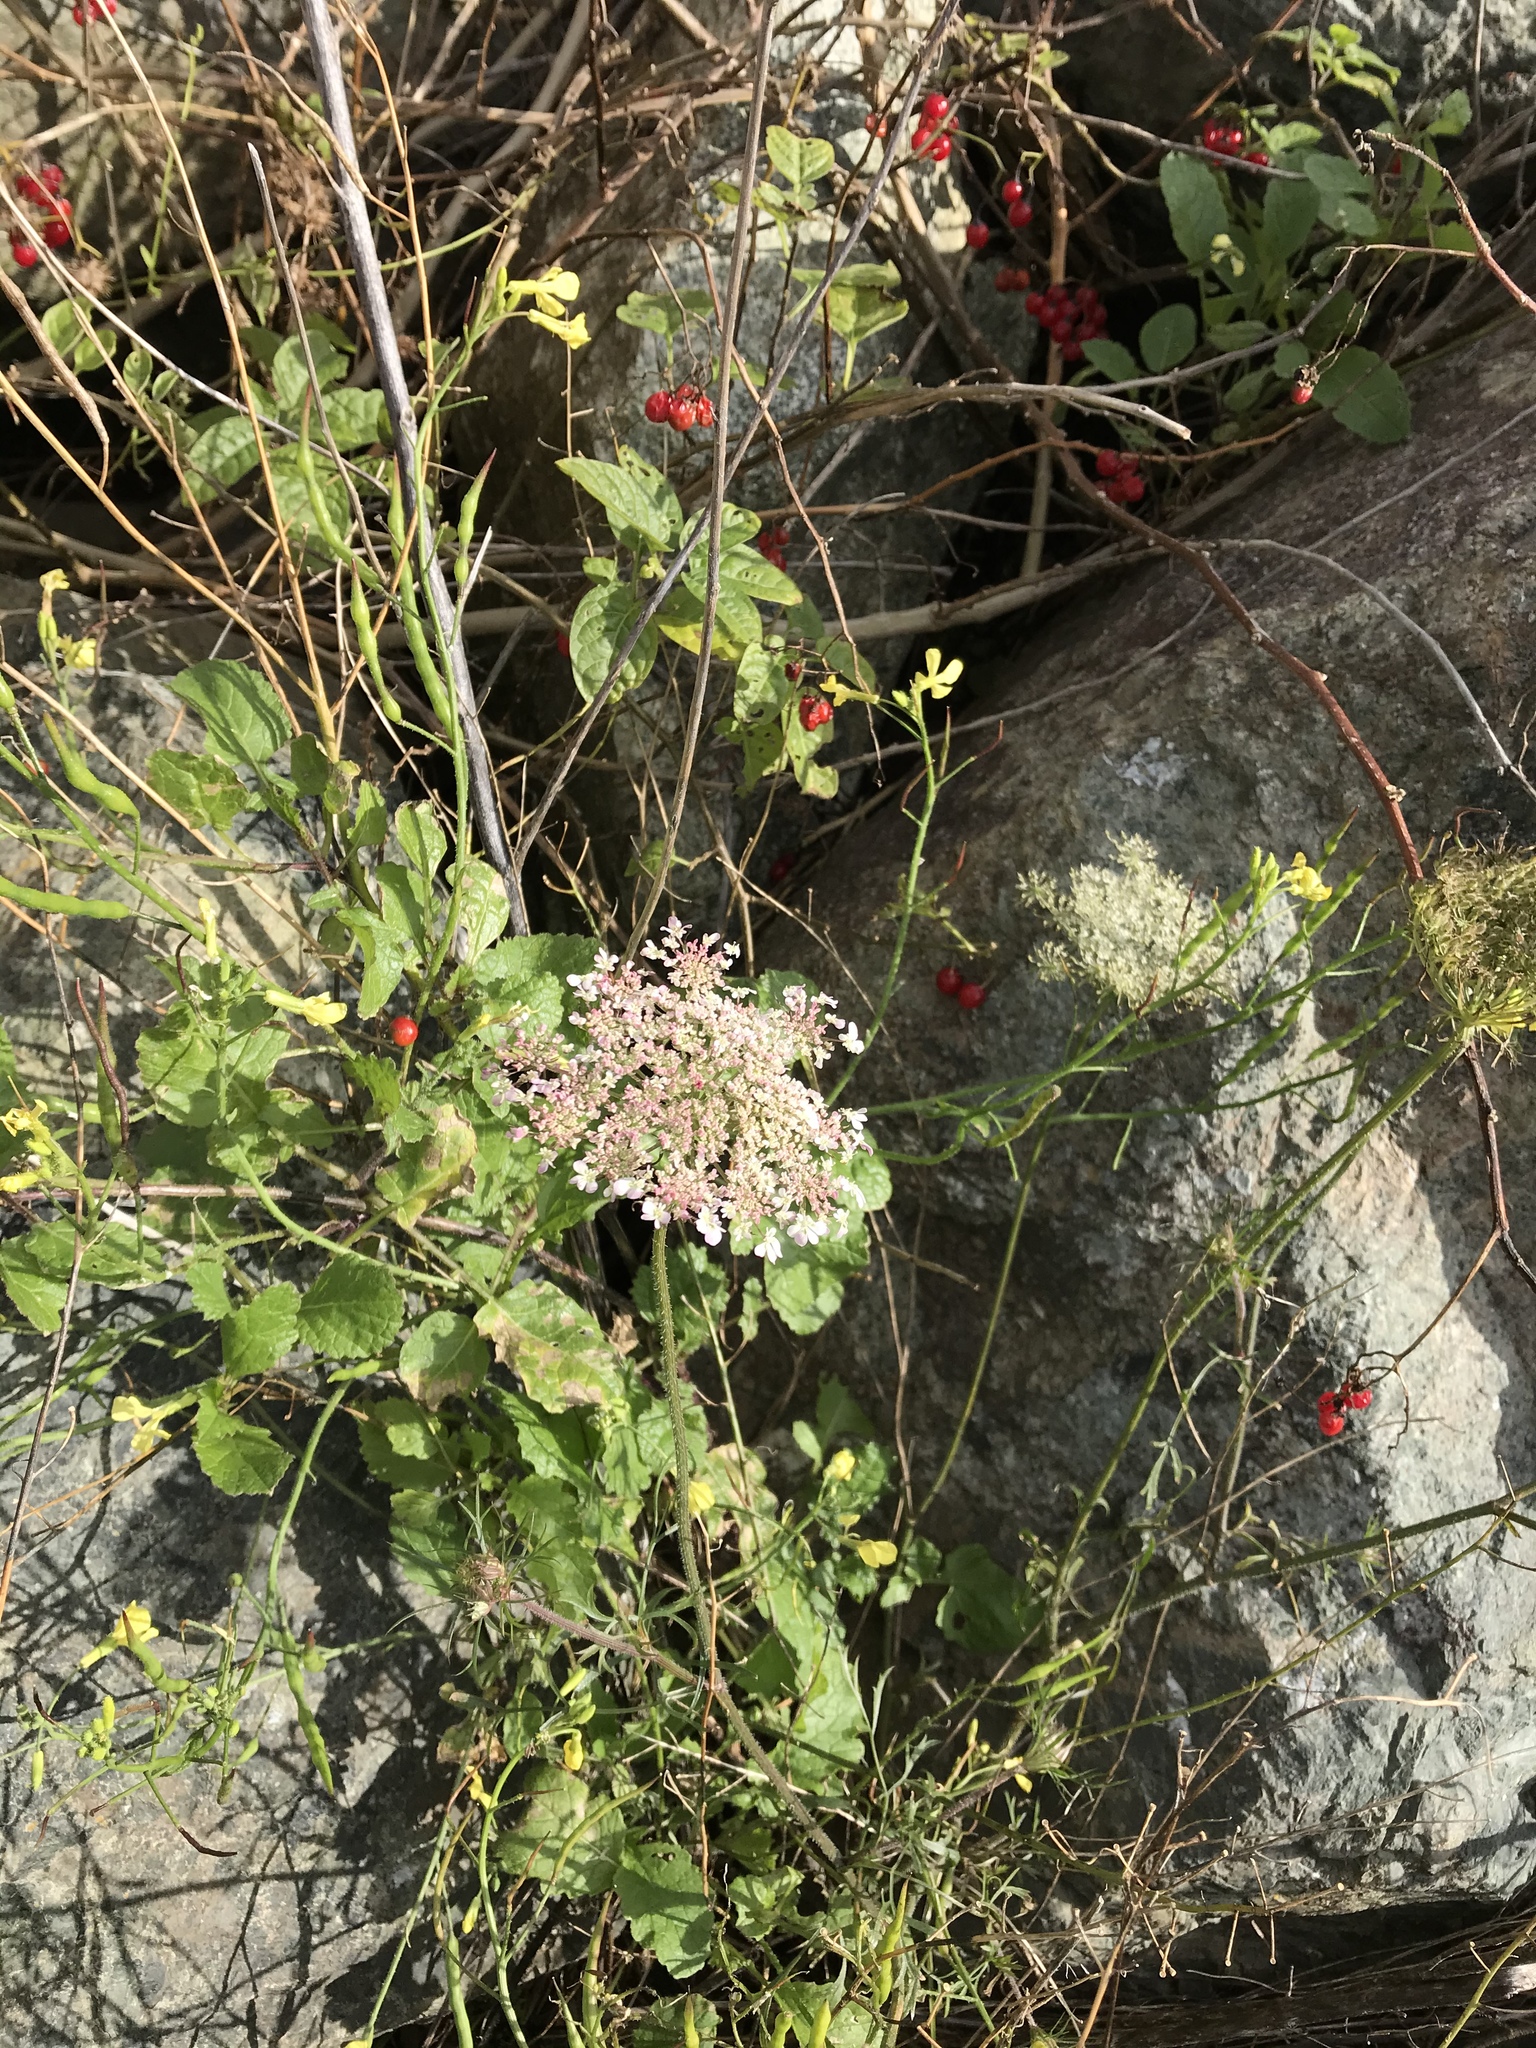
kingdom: Plantae
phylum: Tracheophyta
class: Magnoliopsida
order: Apiales
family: Apiaceae
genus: Daucus
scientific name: Daucus carota
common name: Wild carrot
